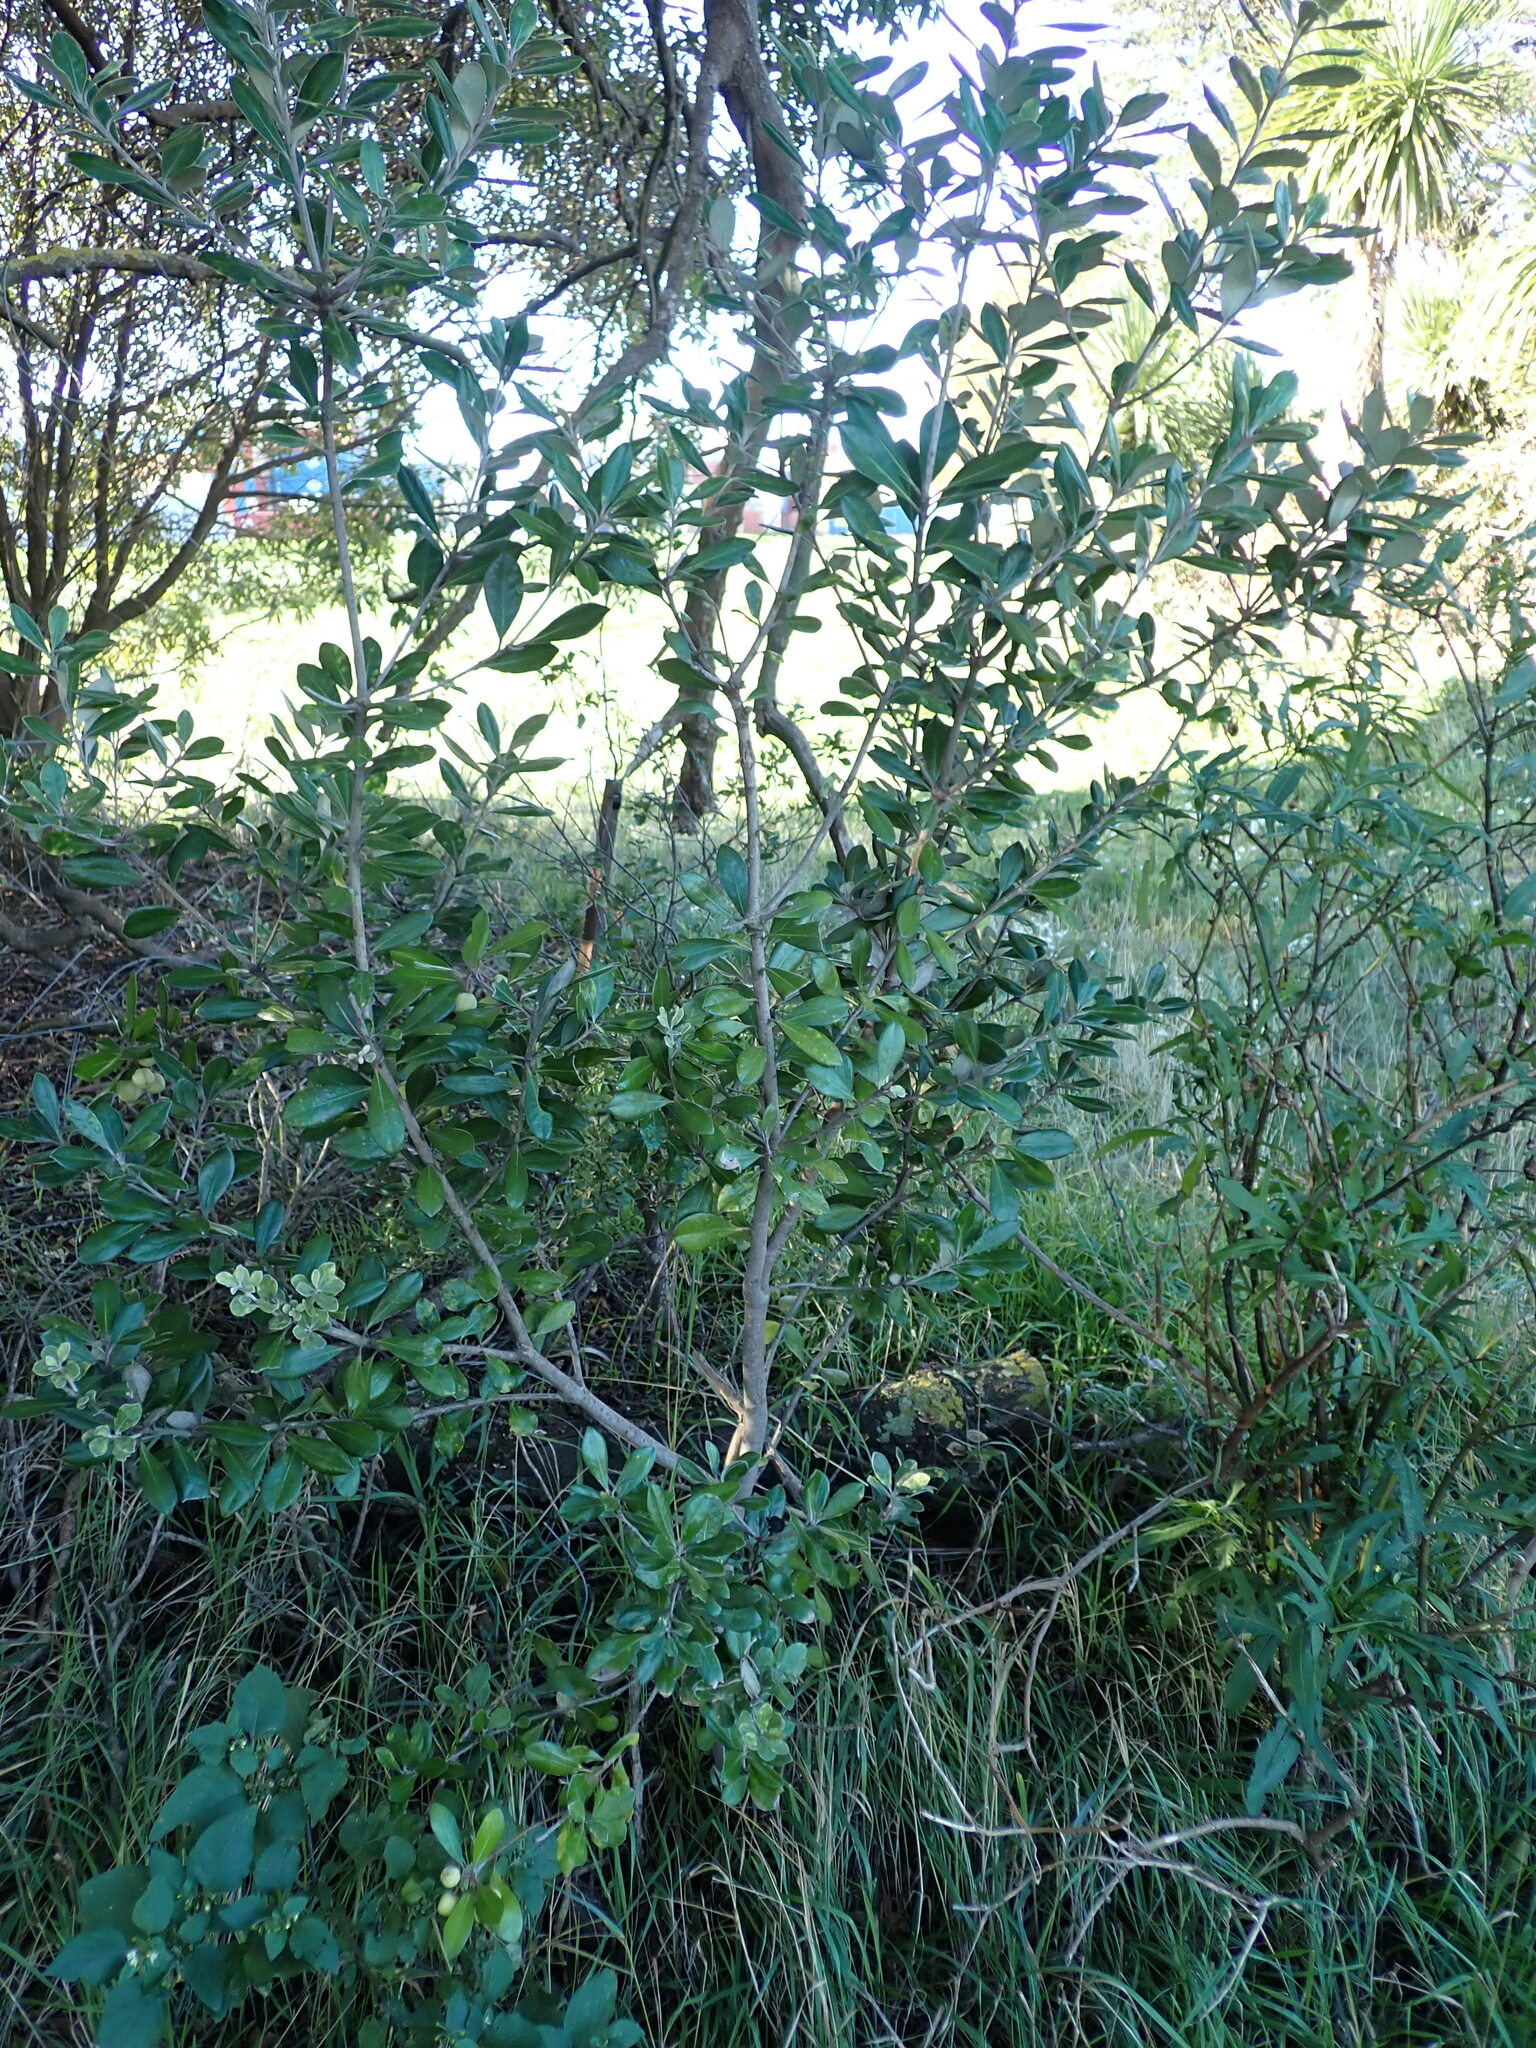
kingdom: Plantae
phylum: Tracheophyta
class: Magnoliopsida
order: Apiales
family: Pittosporaceae
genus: Pittosporum
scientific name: Pittosporum crassifolium
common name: Karo
